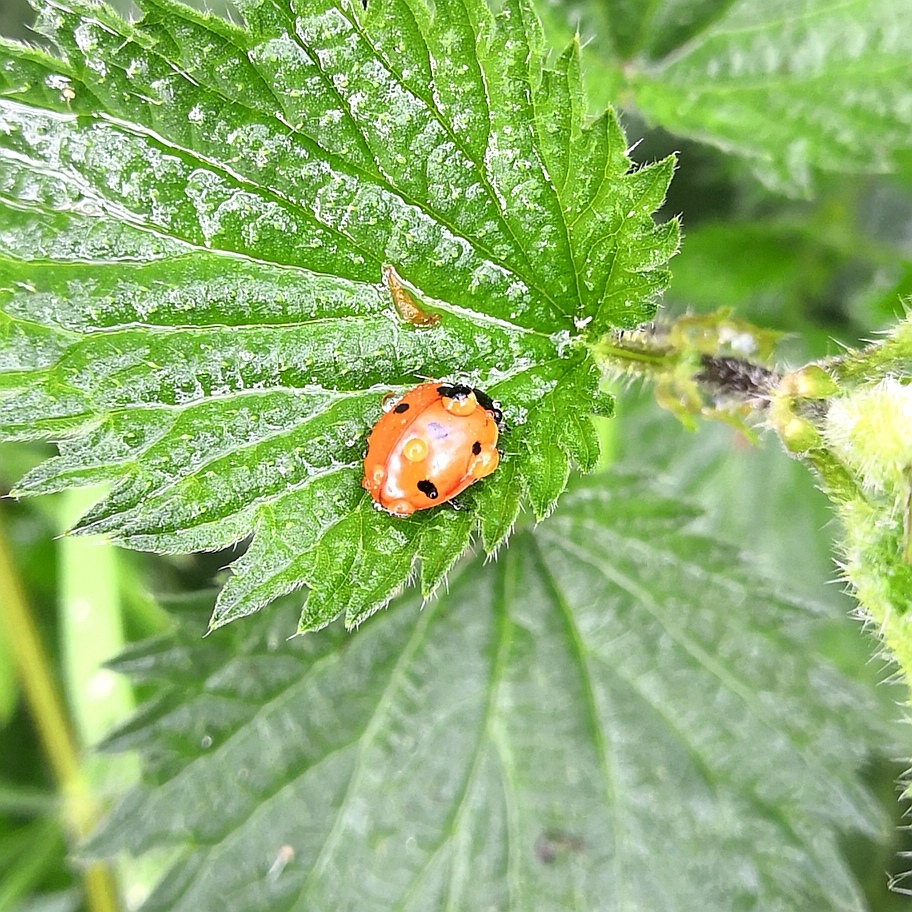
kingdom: Animalia
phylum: Arthropoda
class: Insecta
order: Coleoptera
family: Coccinellidae
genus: Coccinella
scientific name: Coccinella septempunctata
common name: Sevenspotted lady beetle
